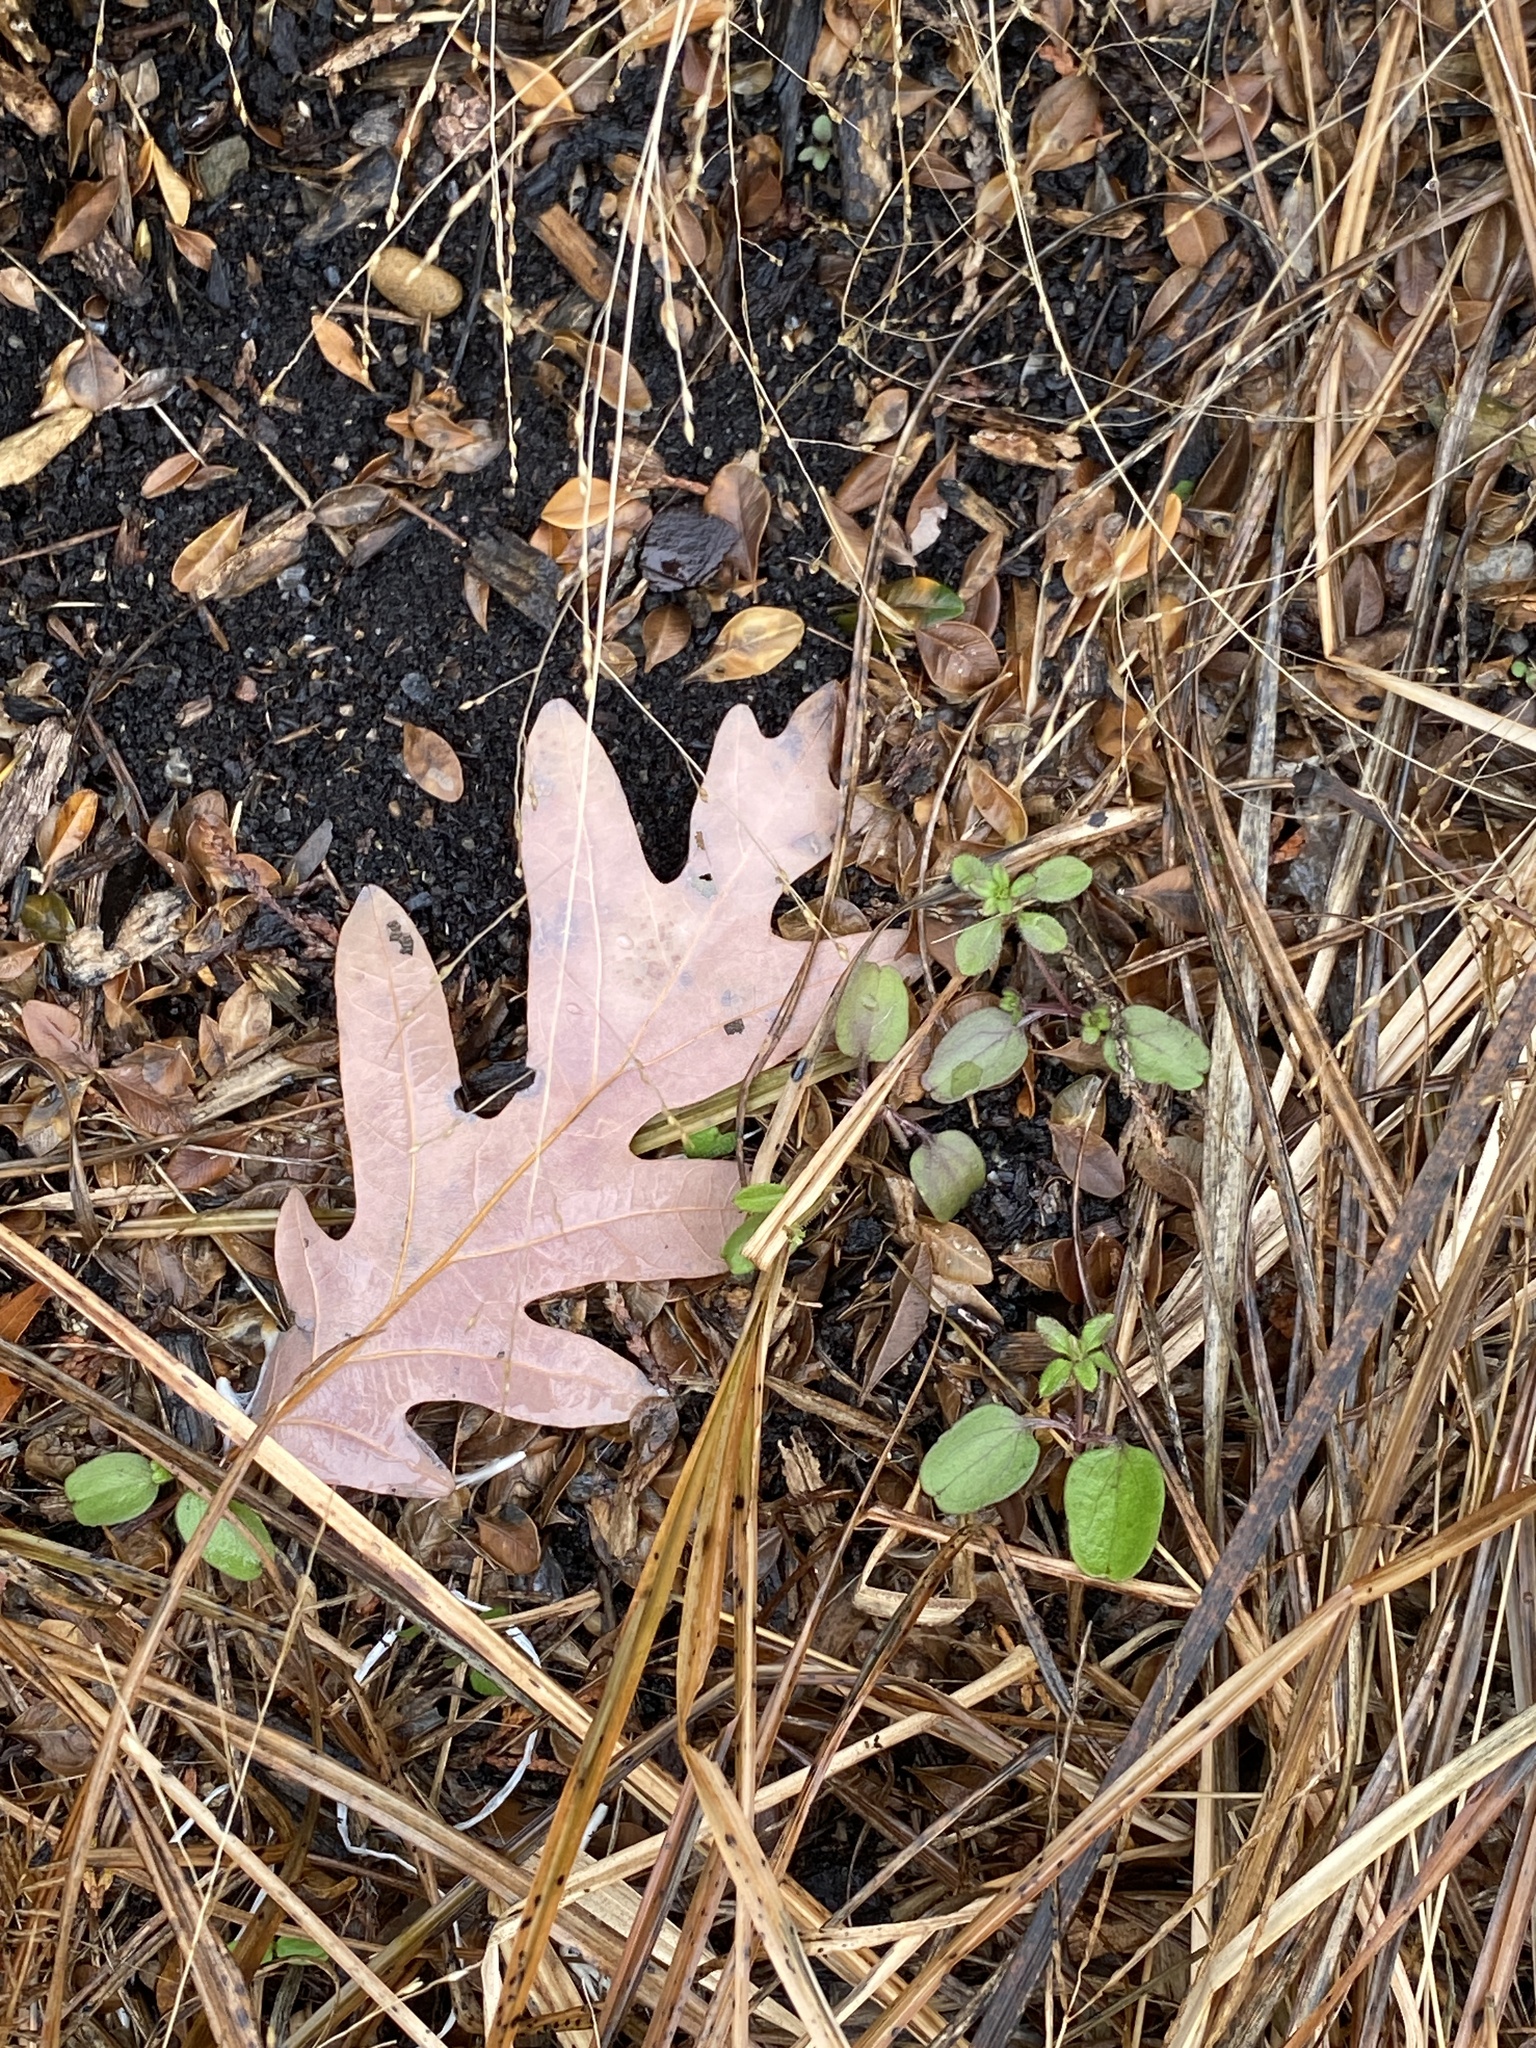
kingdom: Plantae
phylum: Tracheophyta
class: Magnoliopsida
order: Fagales
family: Fagaceae
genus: Quercus
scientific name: Quercus alba
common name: White oak
